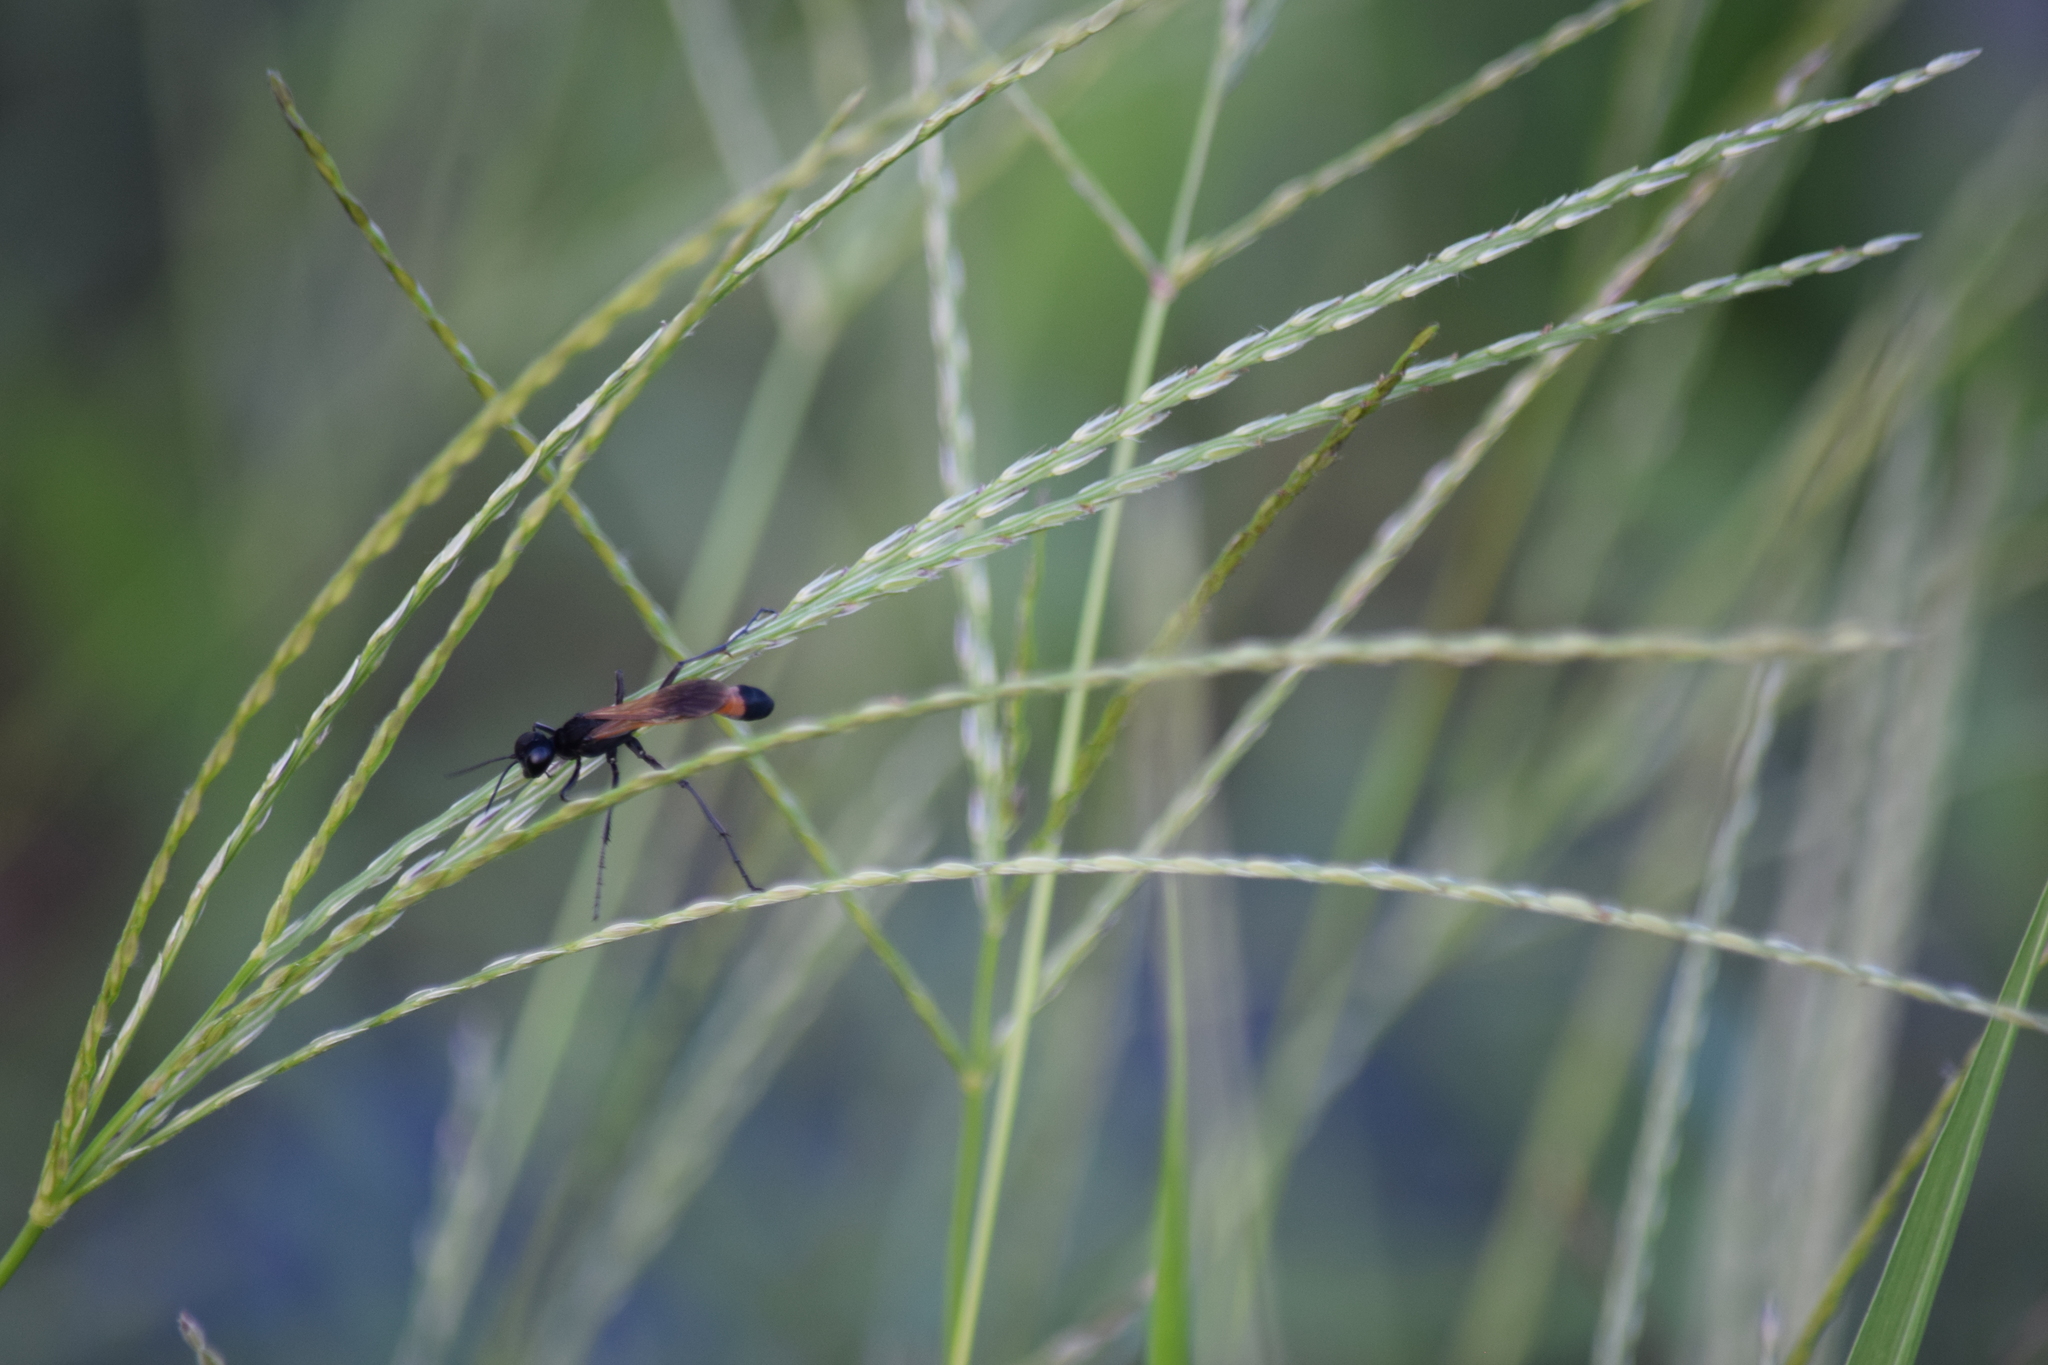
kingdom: Animalia
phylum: Arthropoda
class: Insecta
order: Hymenoptera
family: Sphecidae
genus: Ammophila
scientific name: Ammophila pictipennis
